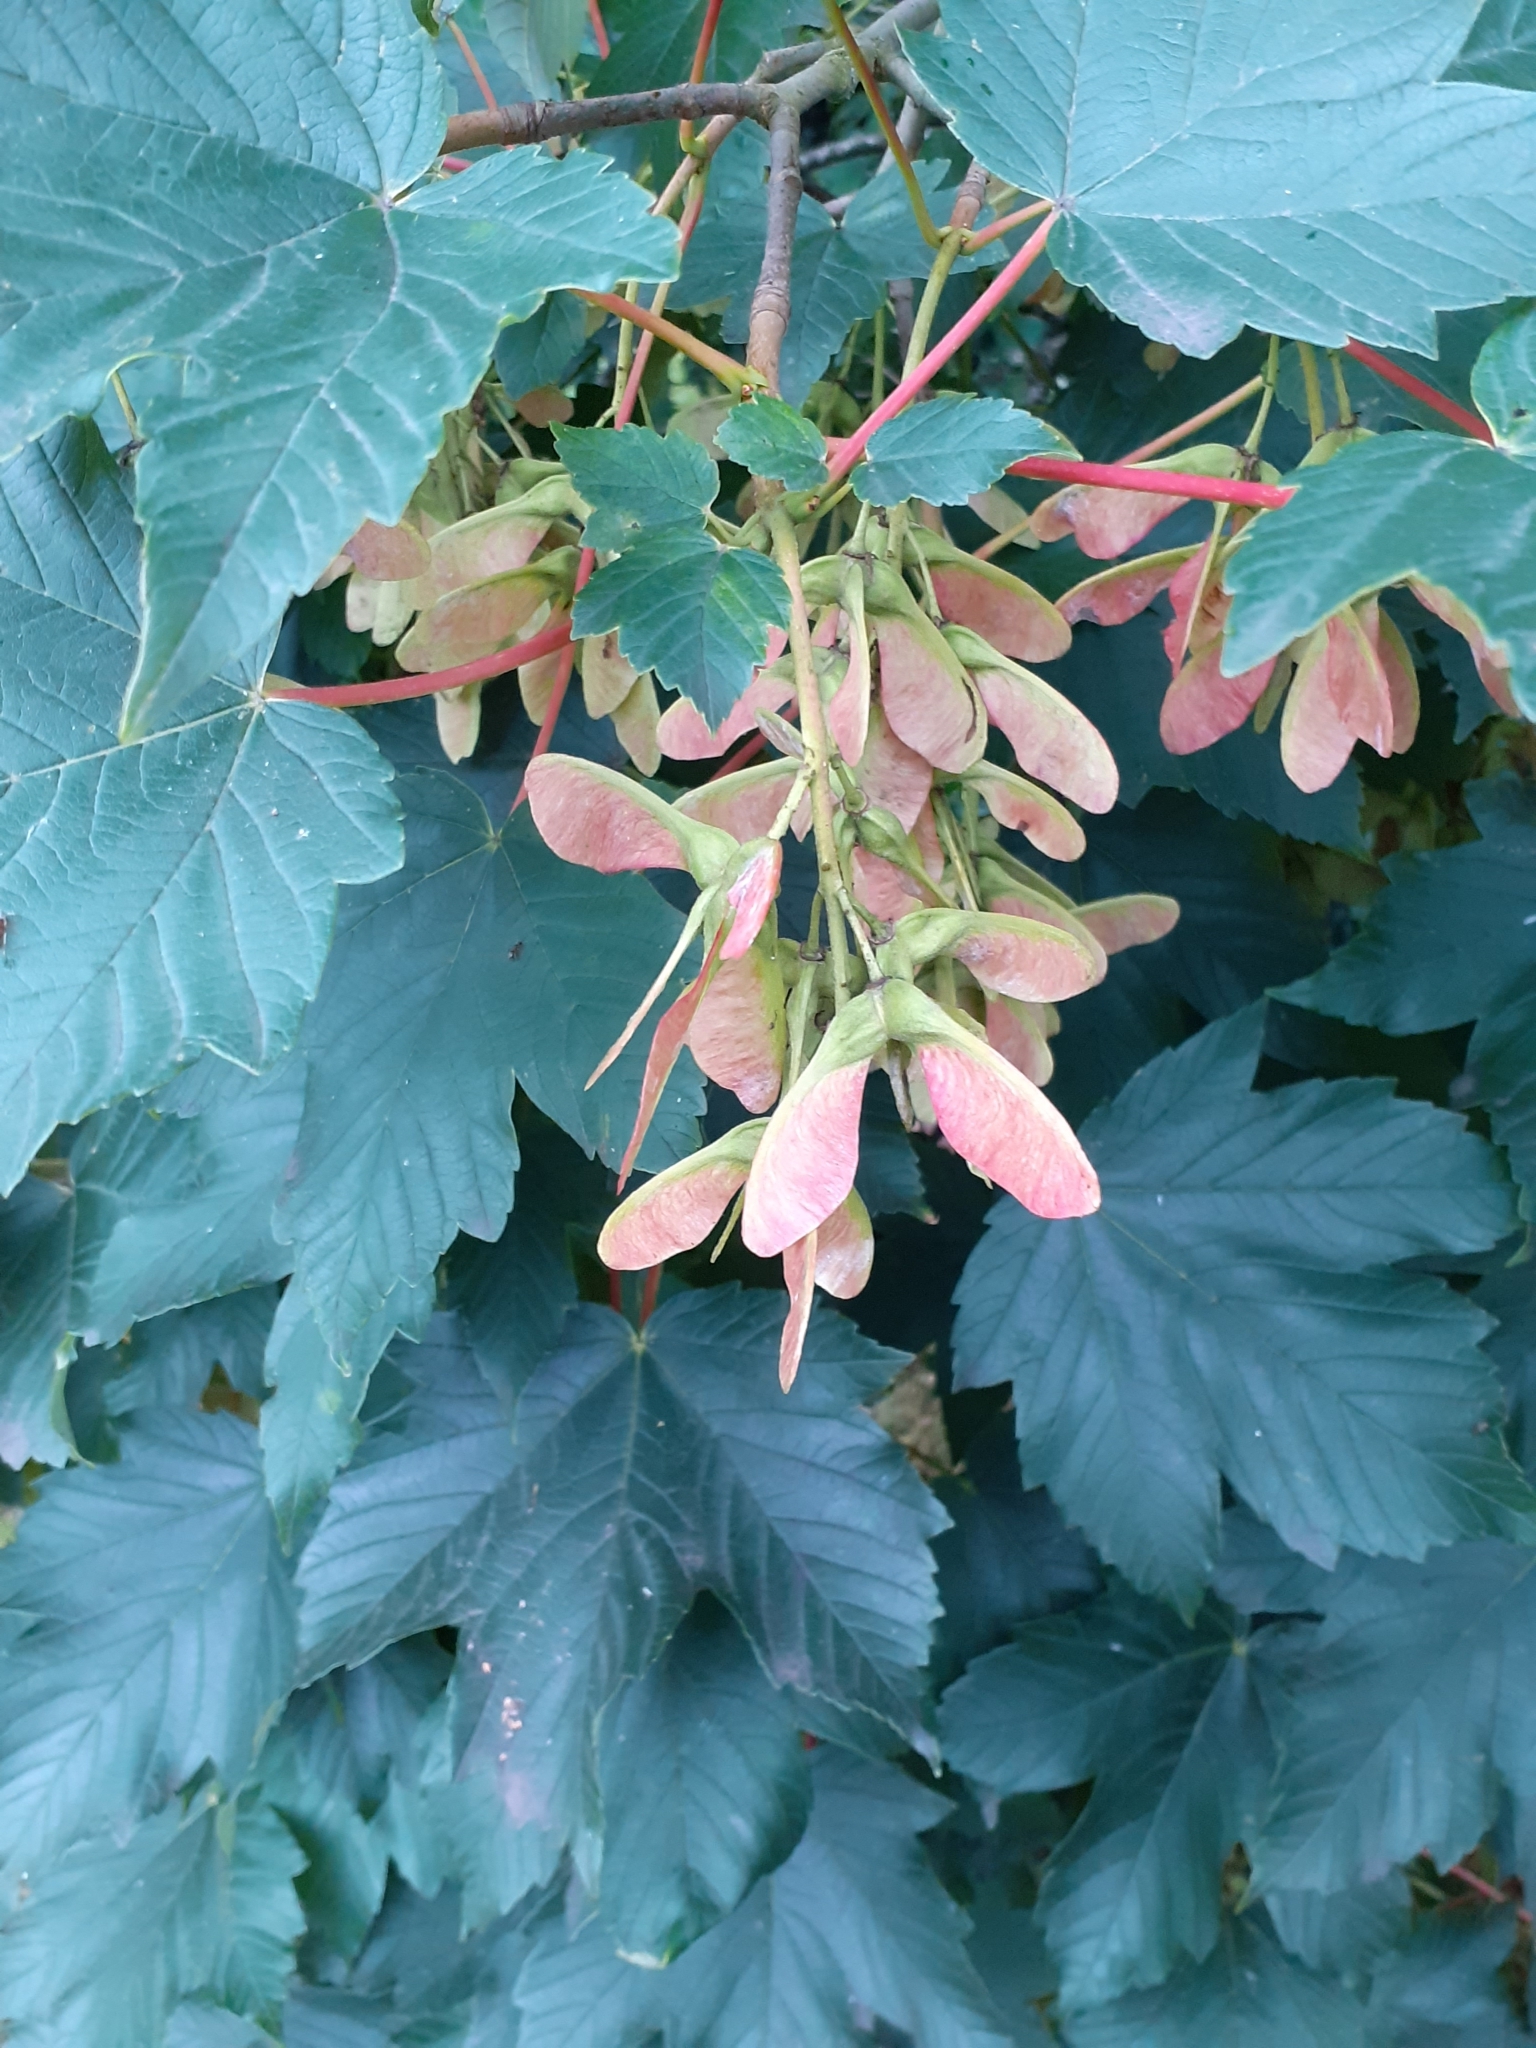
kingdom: Plantae
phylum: Tracheophyta
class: Magnoliopsida
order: Sapindales
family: Sapindaceae
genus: Acer
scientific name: Acer pseudoplatanus
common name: Sycamore
